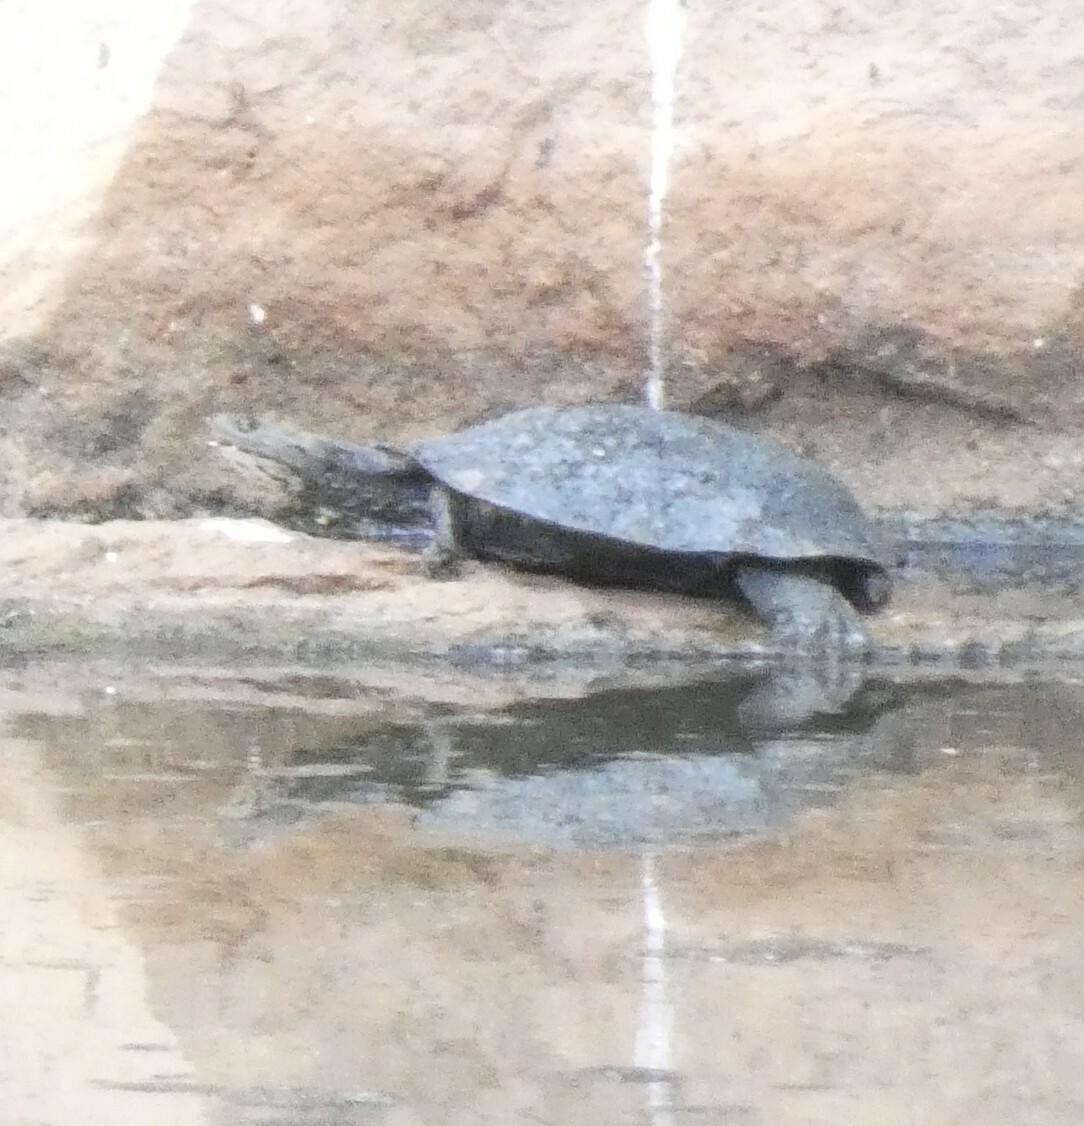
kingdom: Animalia
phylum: Chordata
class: Testudines
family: Chelidae
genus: Phrynops
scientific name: Phrynops geoffroanus
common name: Side-necked turtle of geoffroy
